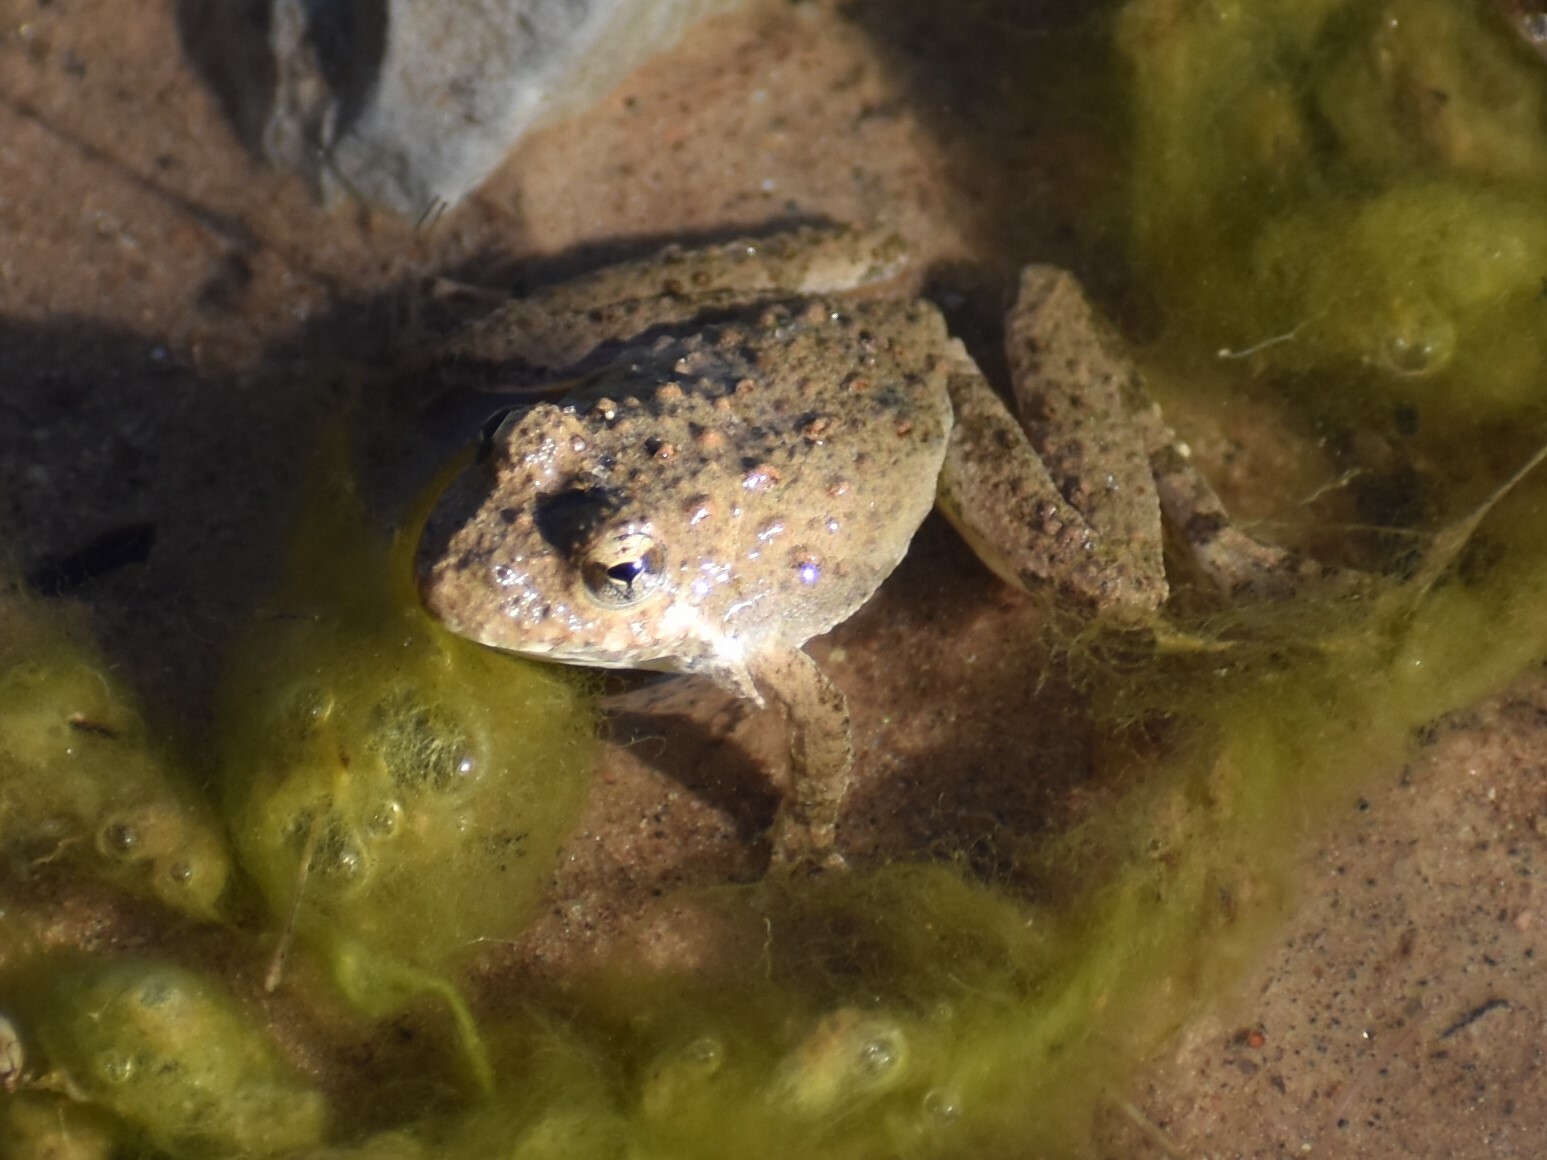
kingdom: Animalia
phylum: Chordata
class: Amphibia
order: Anura
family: Hylidae
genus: Acris
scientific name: Acris blanchardi
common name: Blanchard's cricket frog
